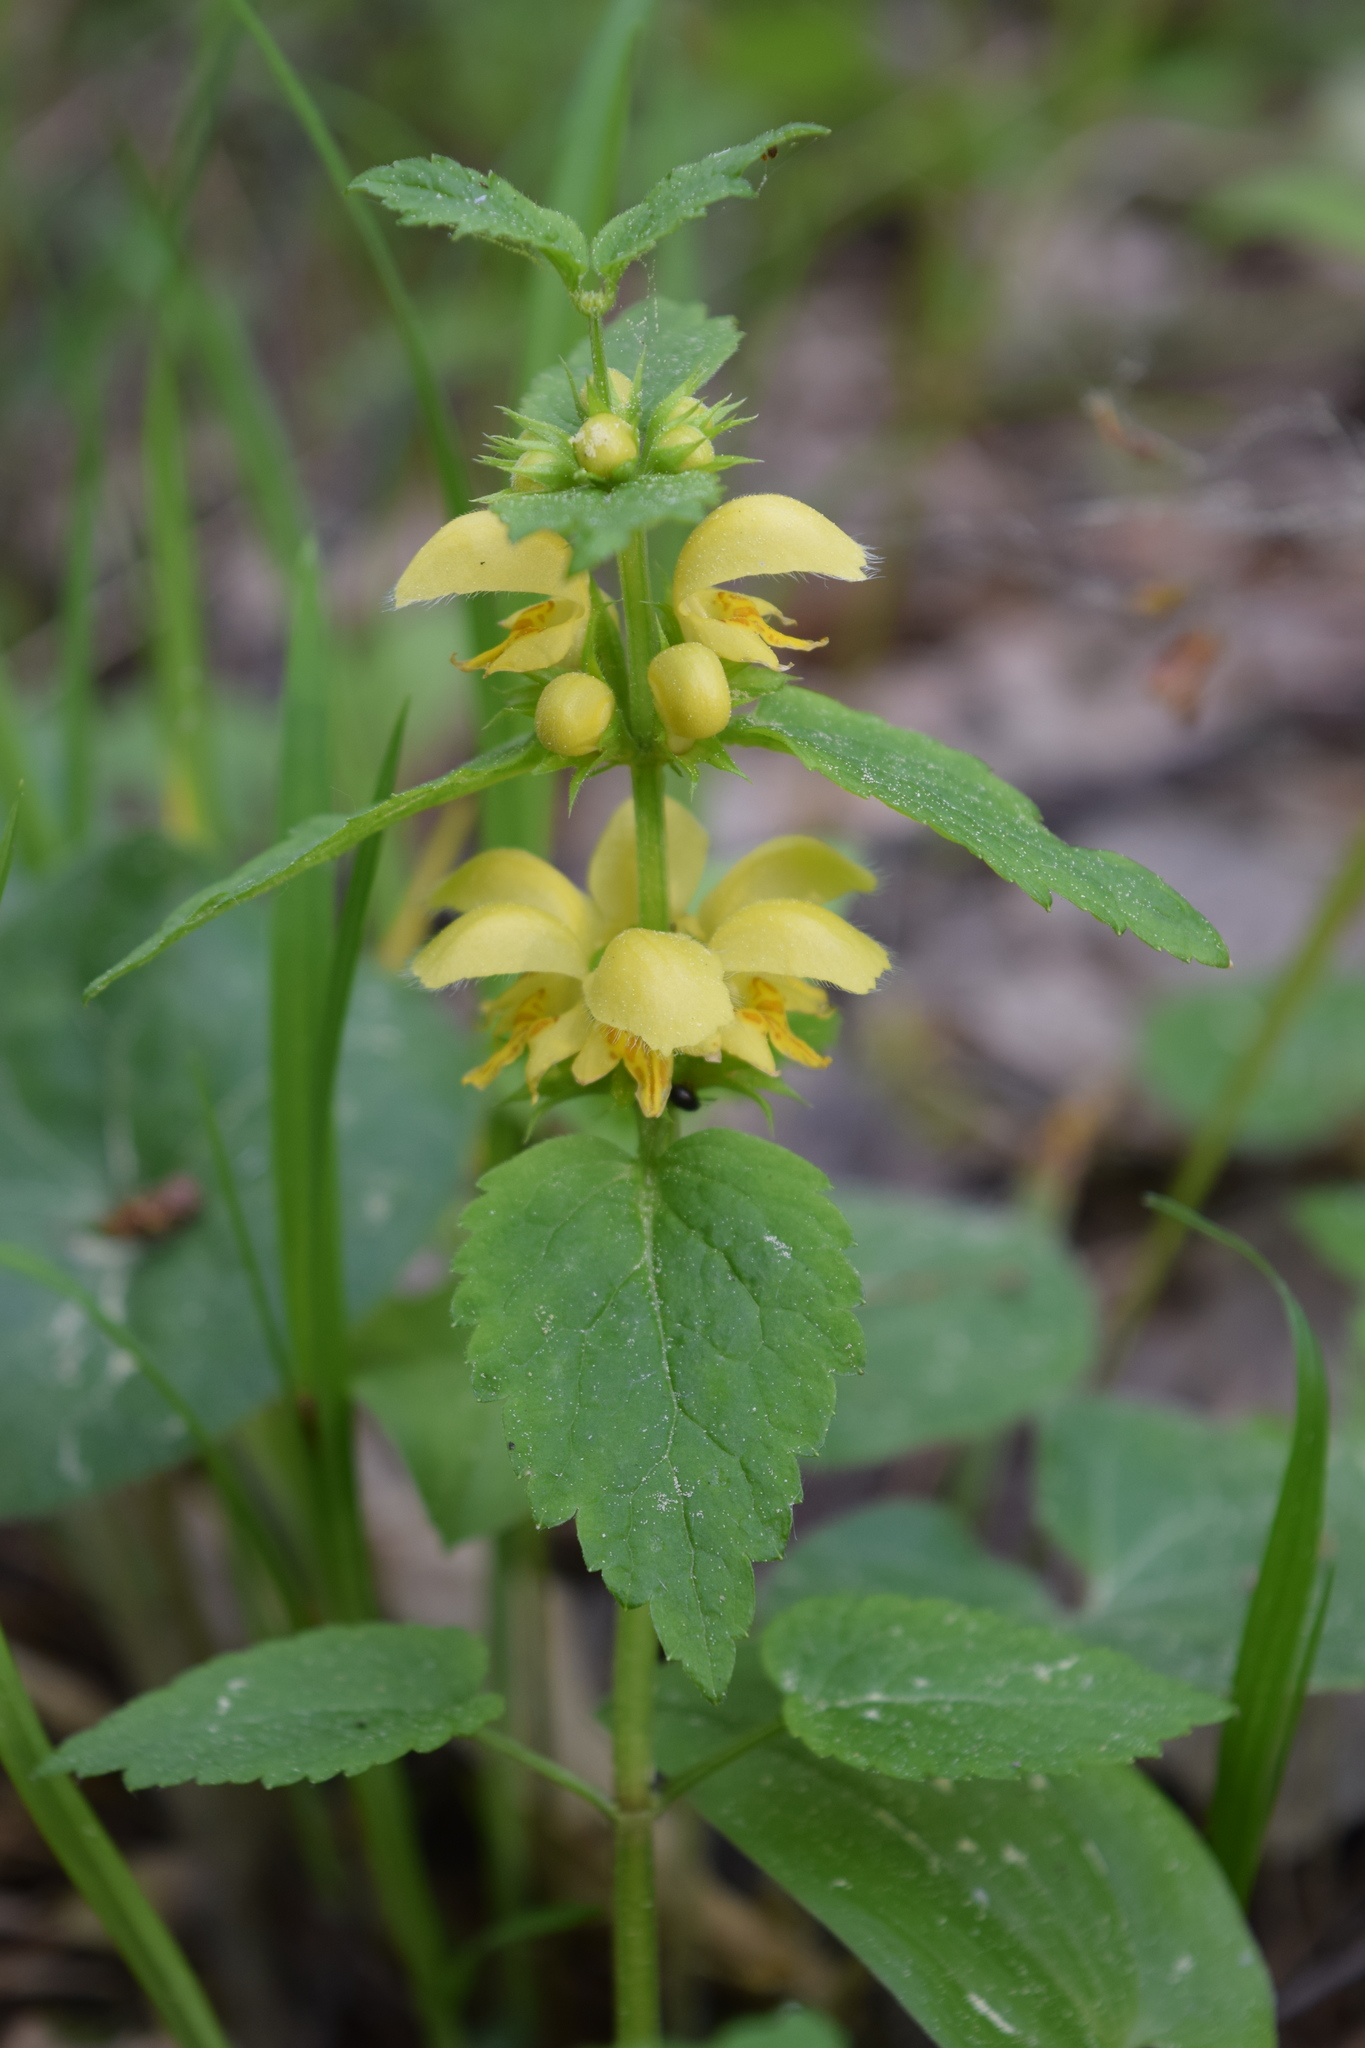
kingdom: Plantae
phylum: Tracheophyta
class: Magnoliopsida
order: Lamiales
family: Lamiaceae
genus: Lamium
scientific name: Lamium galeobdolon
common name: Yellow archangel
